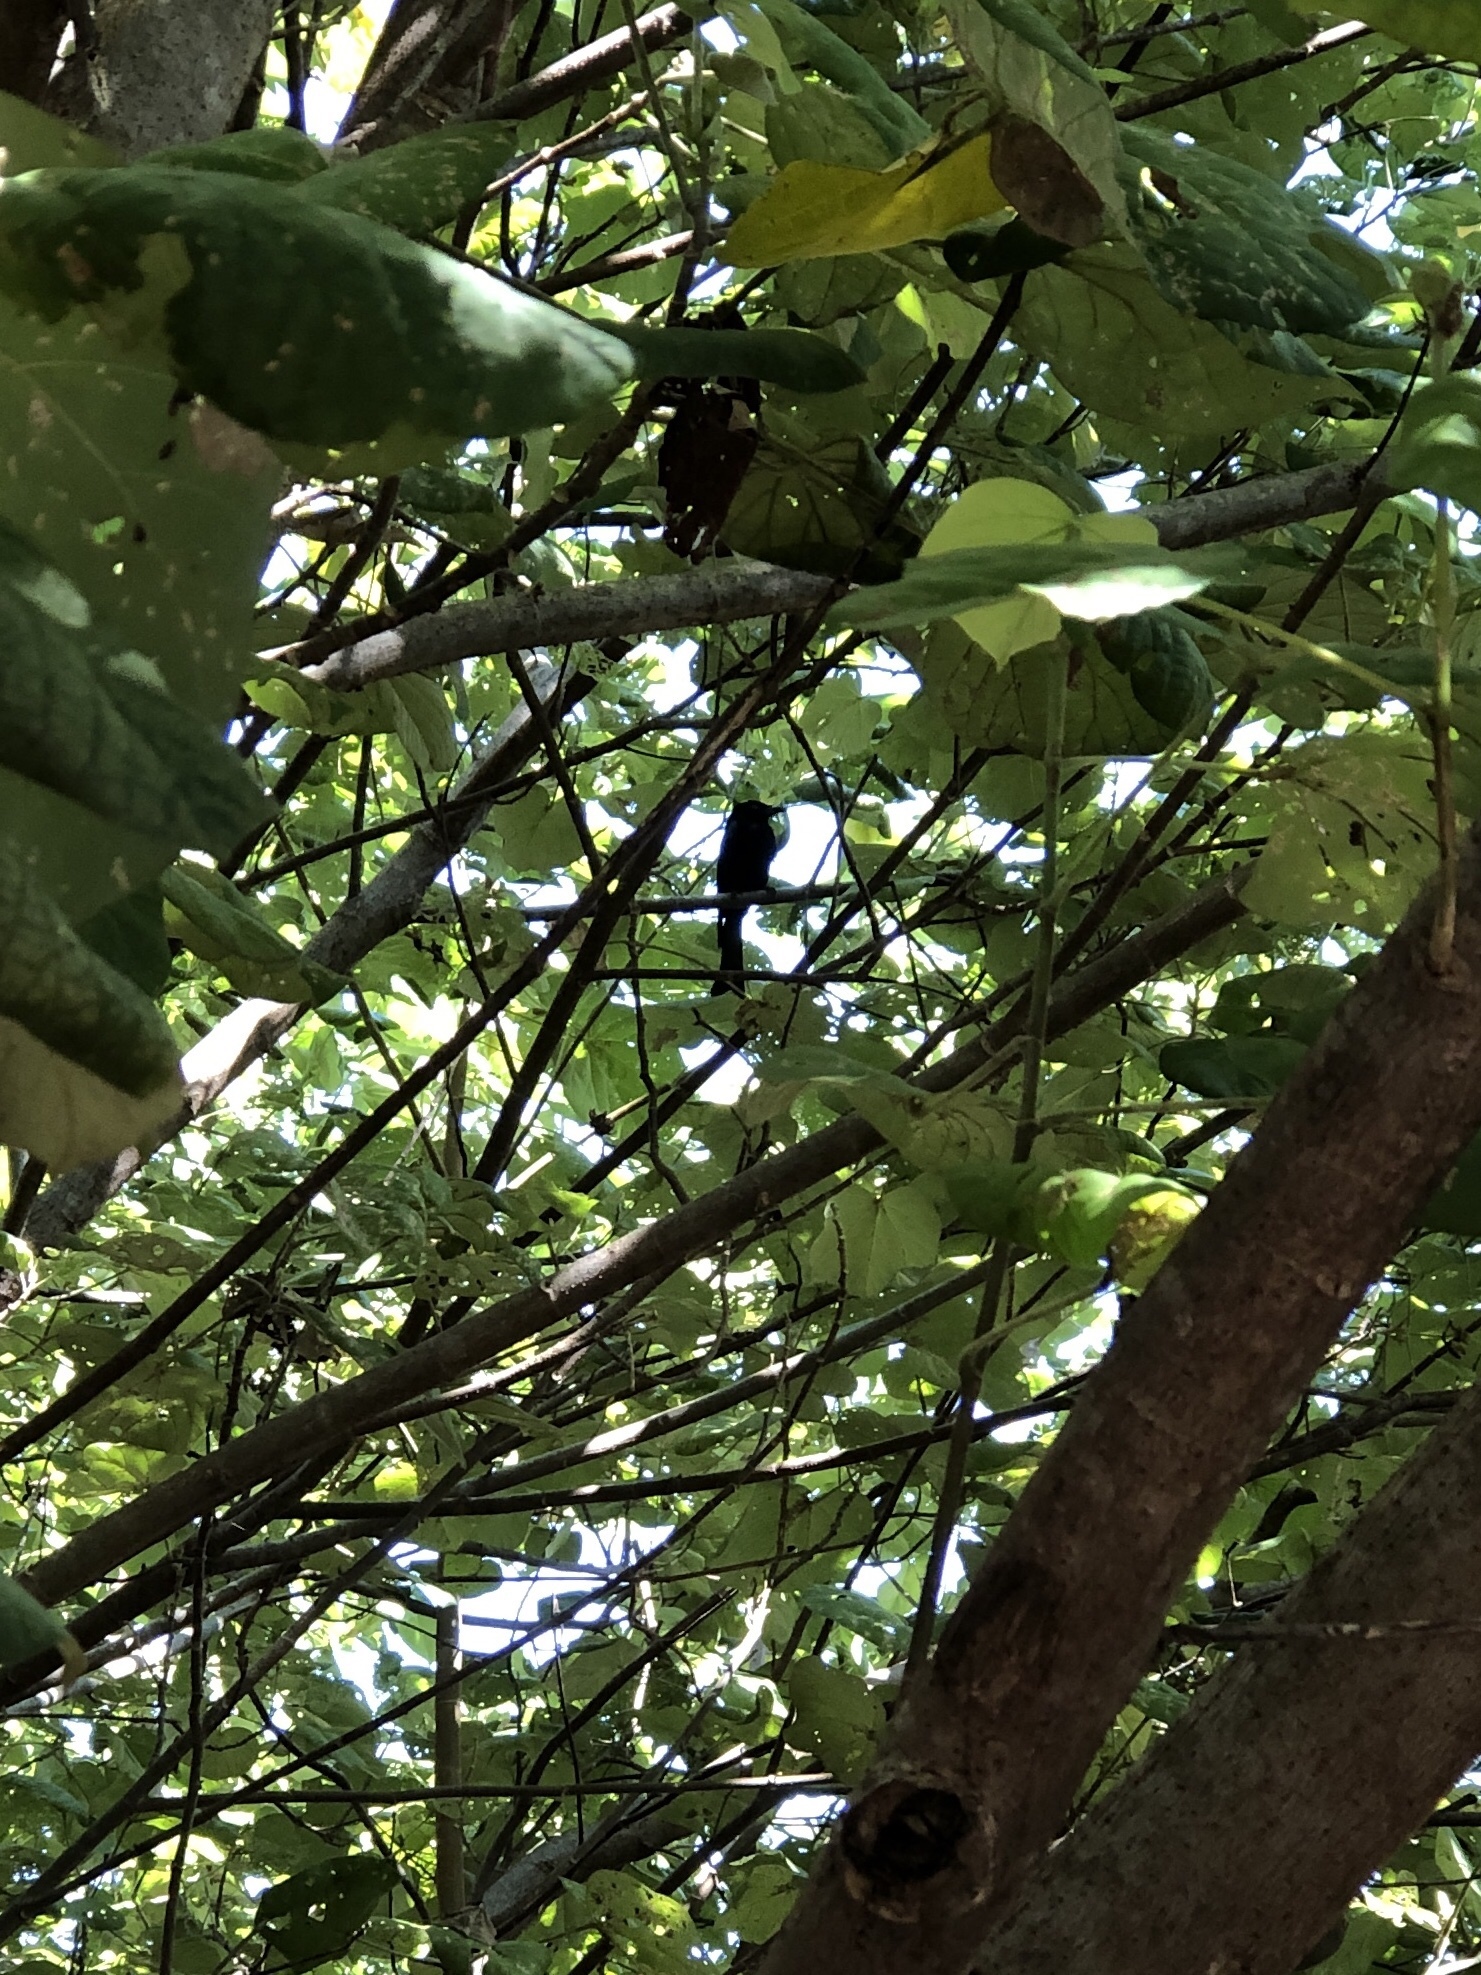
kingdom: Animalia
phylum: Chordata
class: Aves
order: Passeriformes
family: Dicruridae
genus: Dicrurus
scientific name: Dicrurus bracteatus
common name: Spangled drongo
